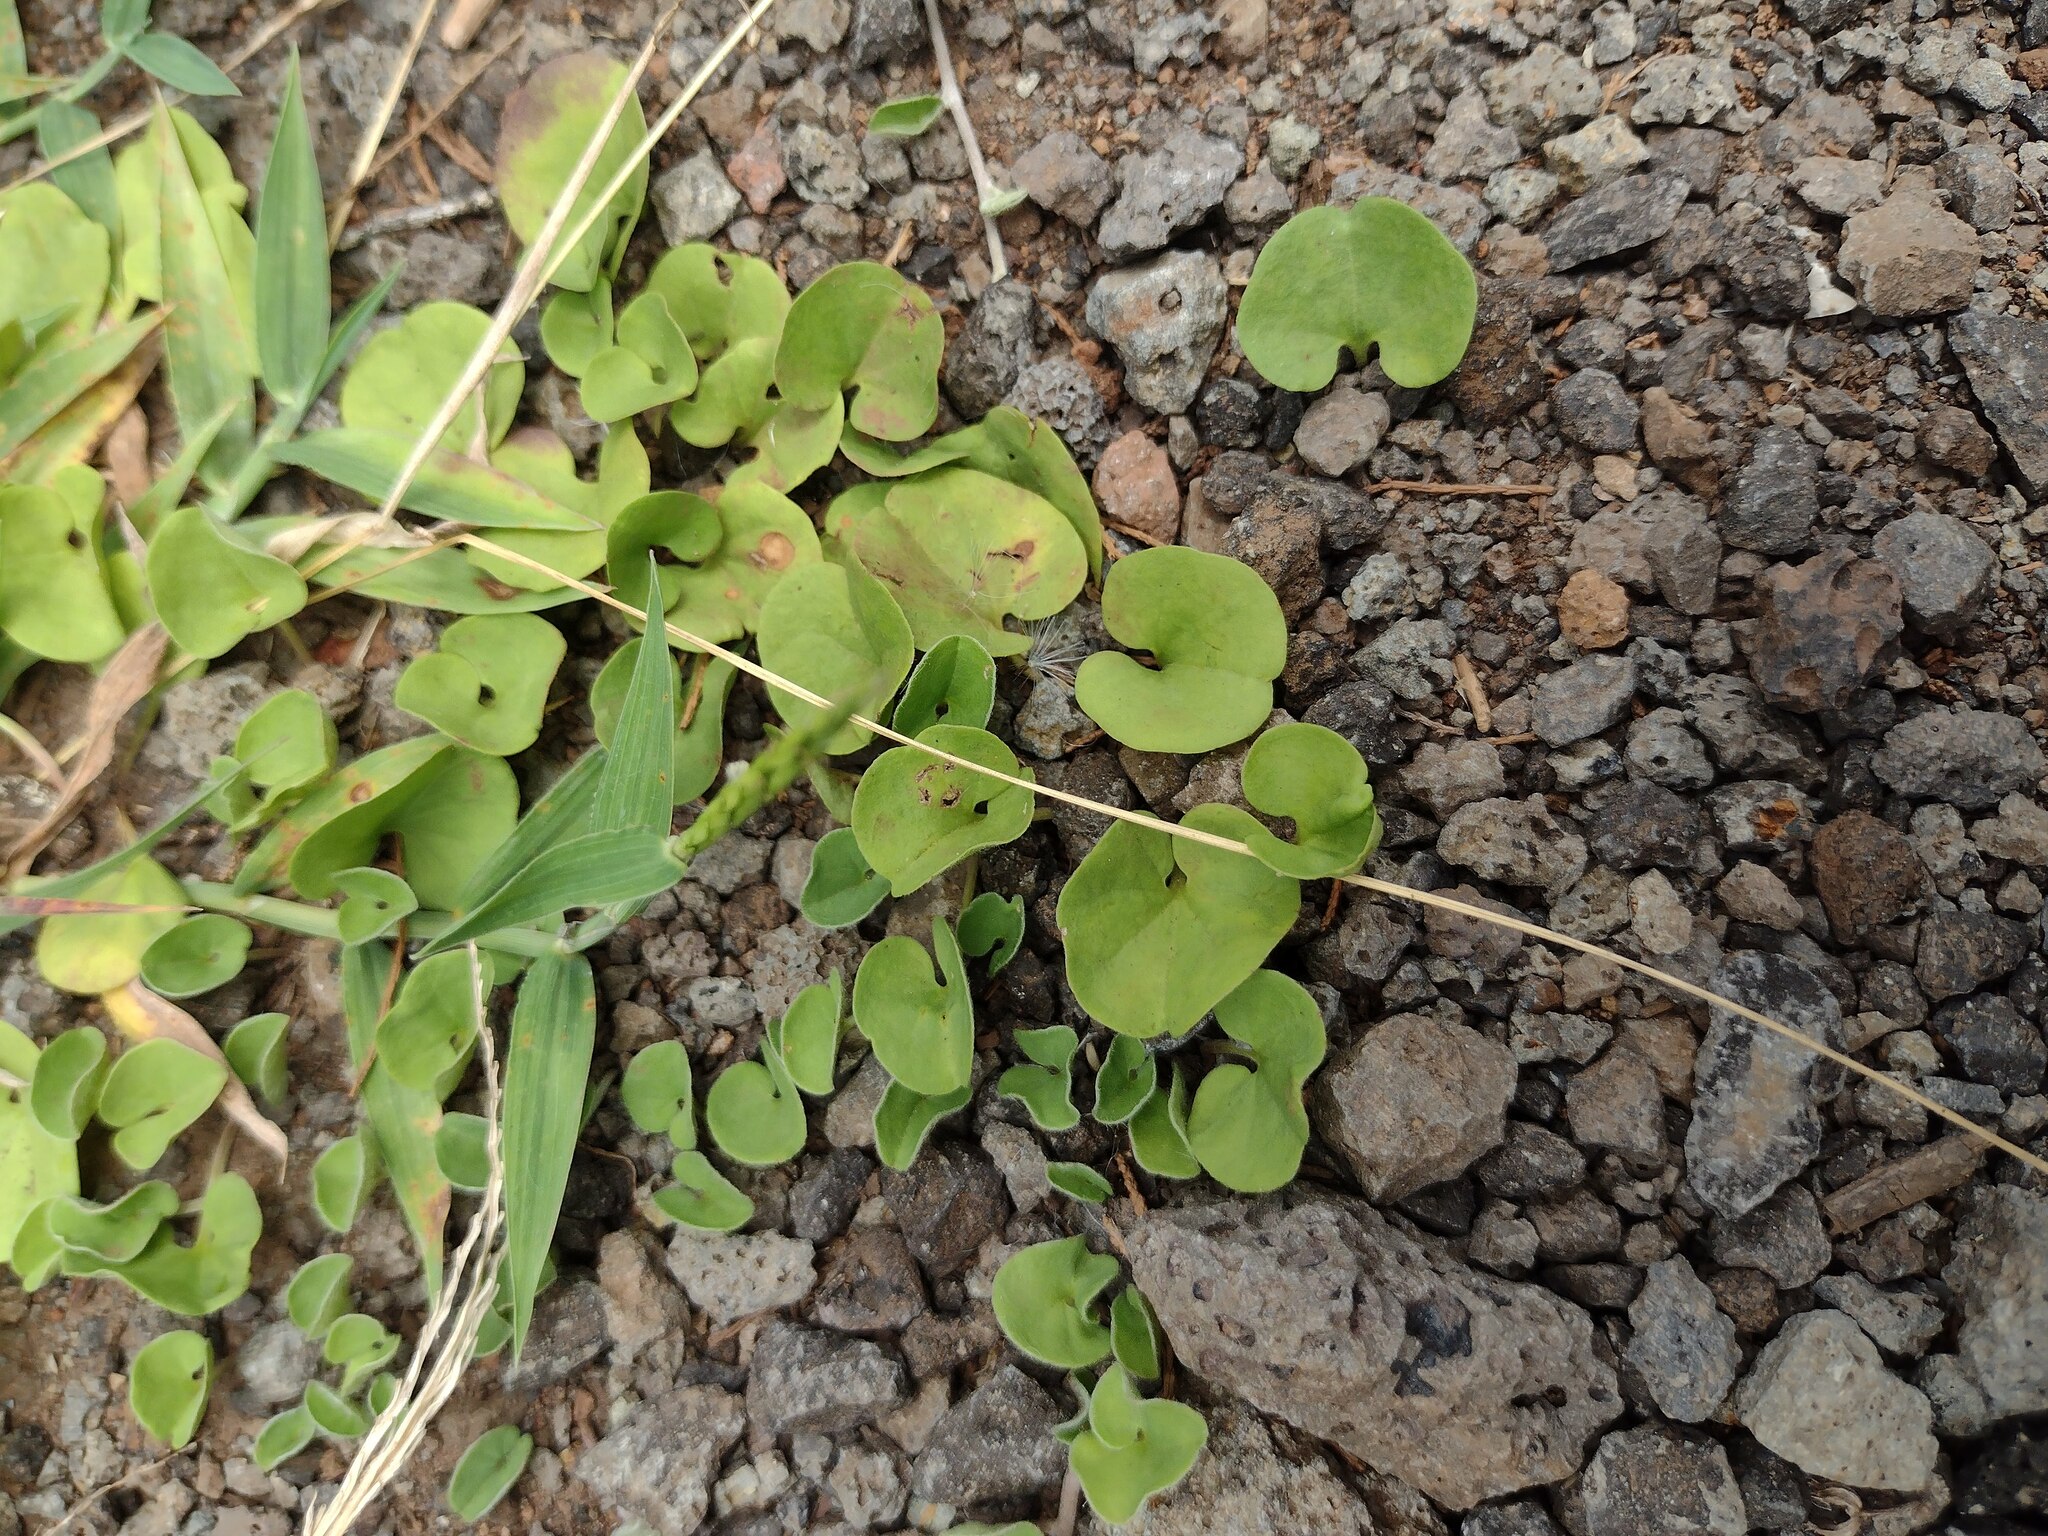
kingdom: Plantae
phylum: Tracheophyta
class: Magnoliopsida
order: Solanales
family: Convolvulaceae
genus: Dichondra
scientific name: Dichondra micrantha
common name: Kidneyweed
